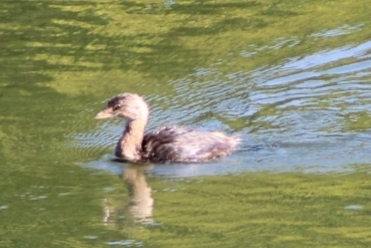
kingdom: Animalia
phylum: Chordata
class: Aves
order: Podicipediformes
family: Podicipedidae
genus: Podilymbus
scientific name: Podilymbus podiceps
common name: Pied-billed grebe
